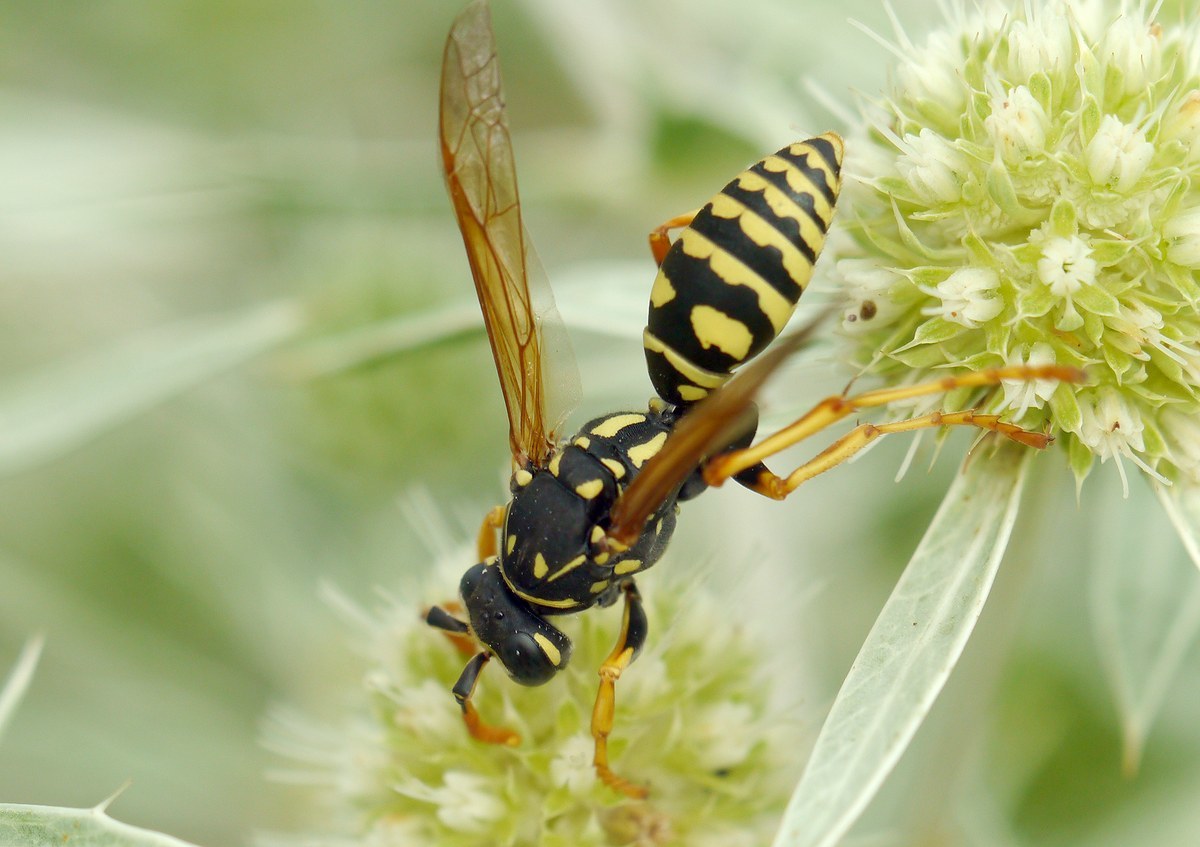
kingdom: Animalia
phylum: Arthropoda
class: Insecta
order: Hymenoptera
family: Eumenidae
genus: Polistes
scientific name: Polistes dominula
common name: Paper wasp
